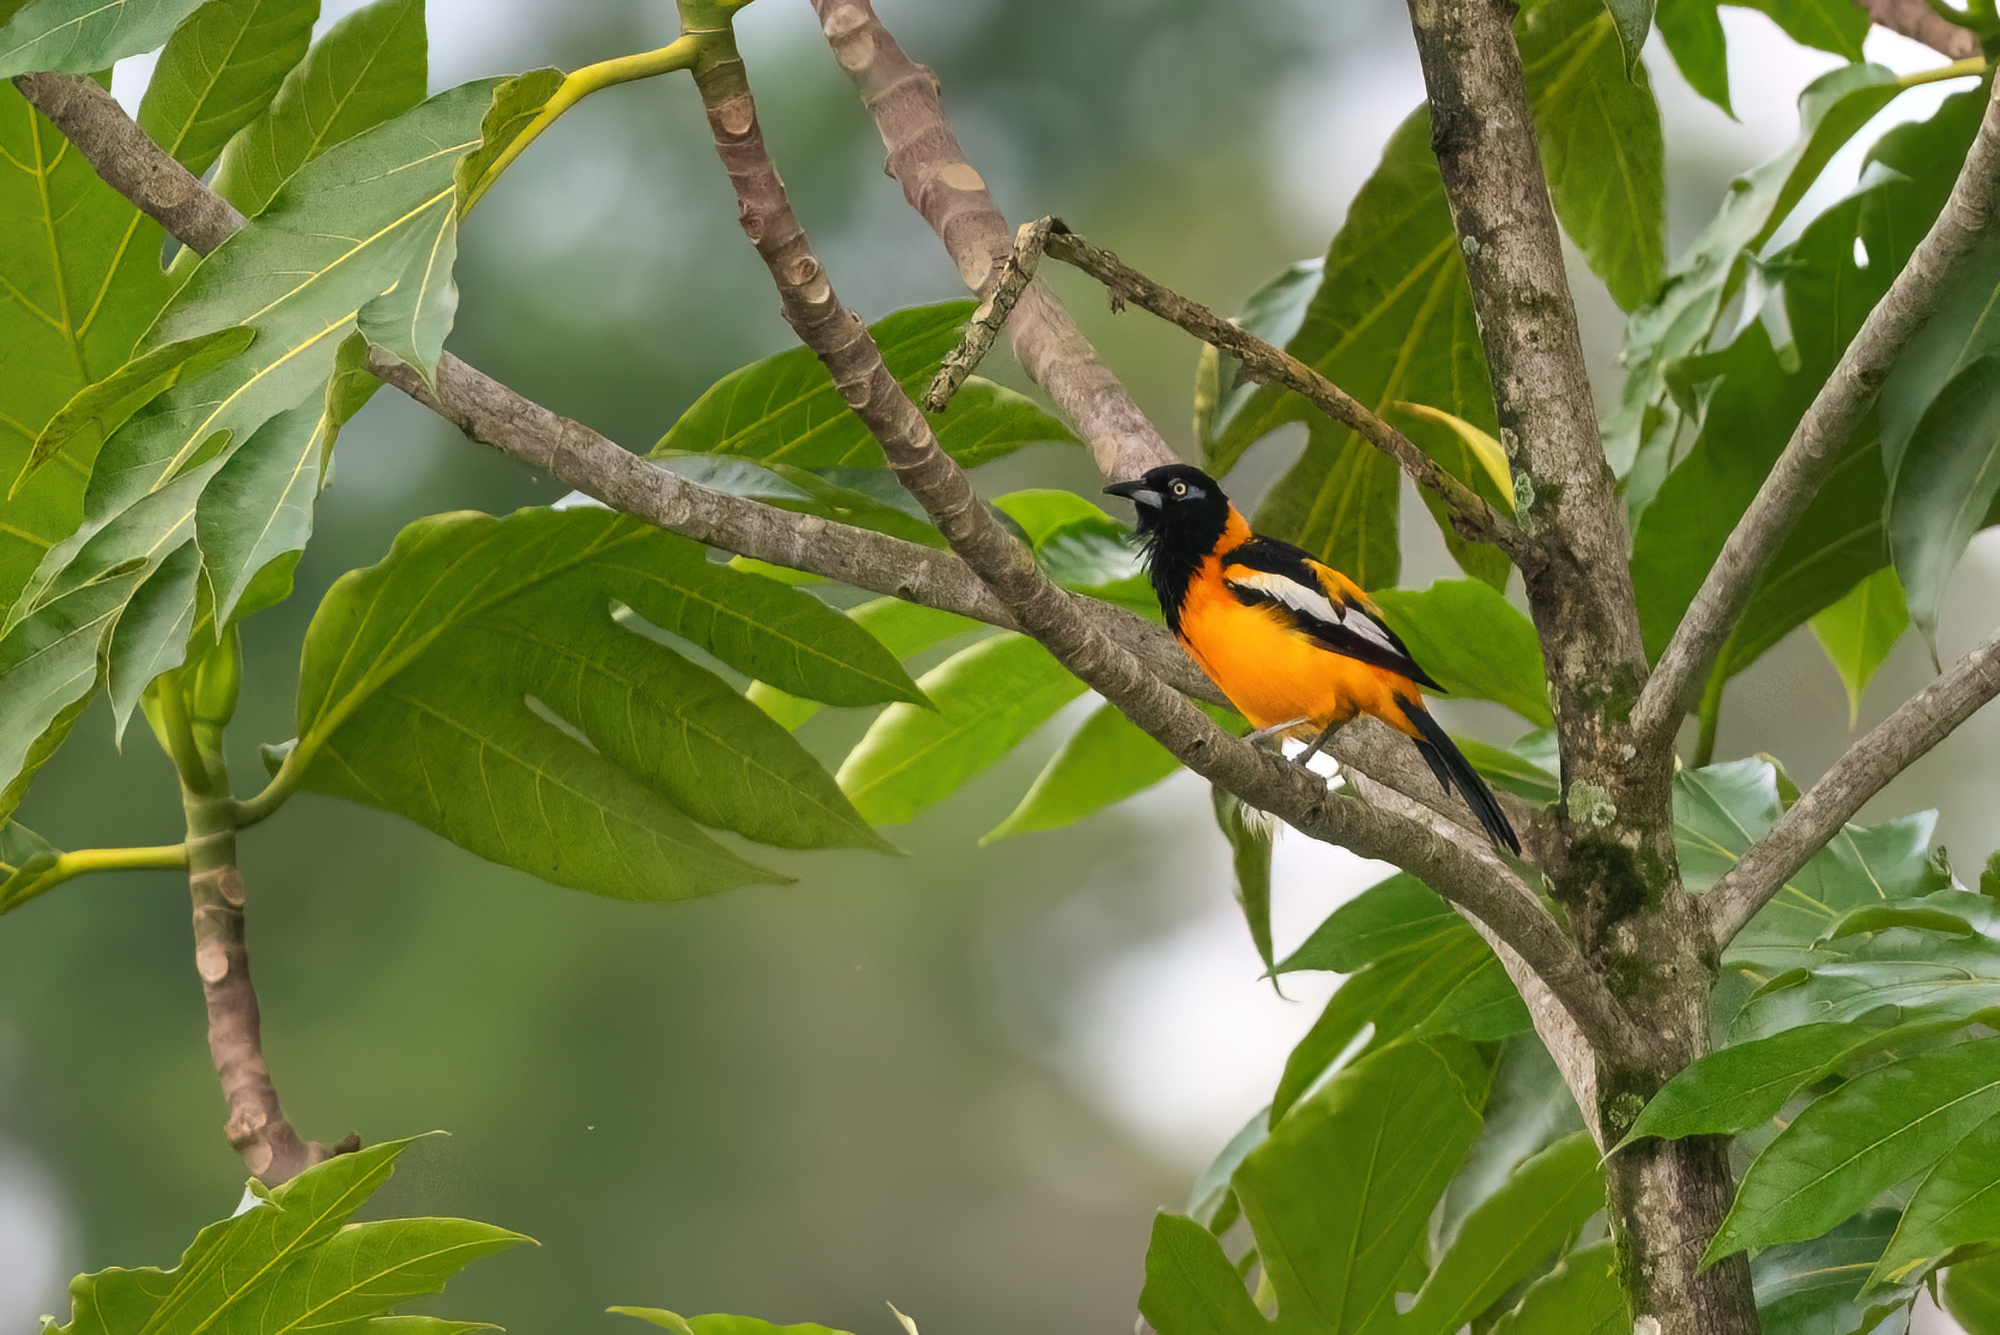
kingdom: Animalia
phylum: Chordata
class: Aves
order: Passeriformes
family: Icteridae
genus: Icterus
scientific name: Icterus icterus
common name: Venezuelan troupial
